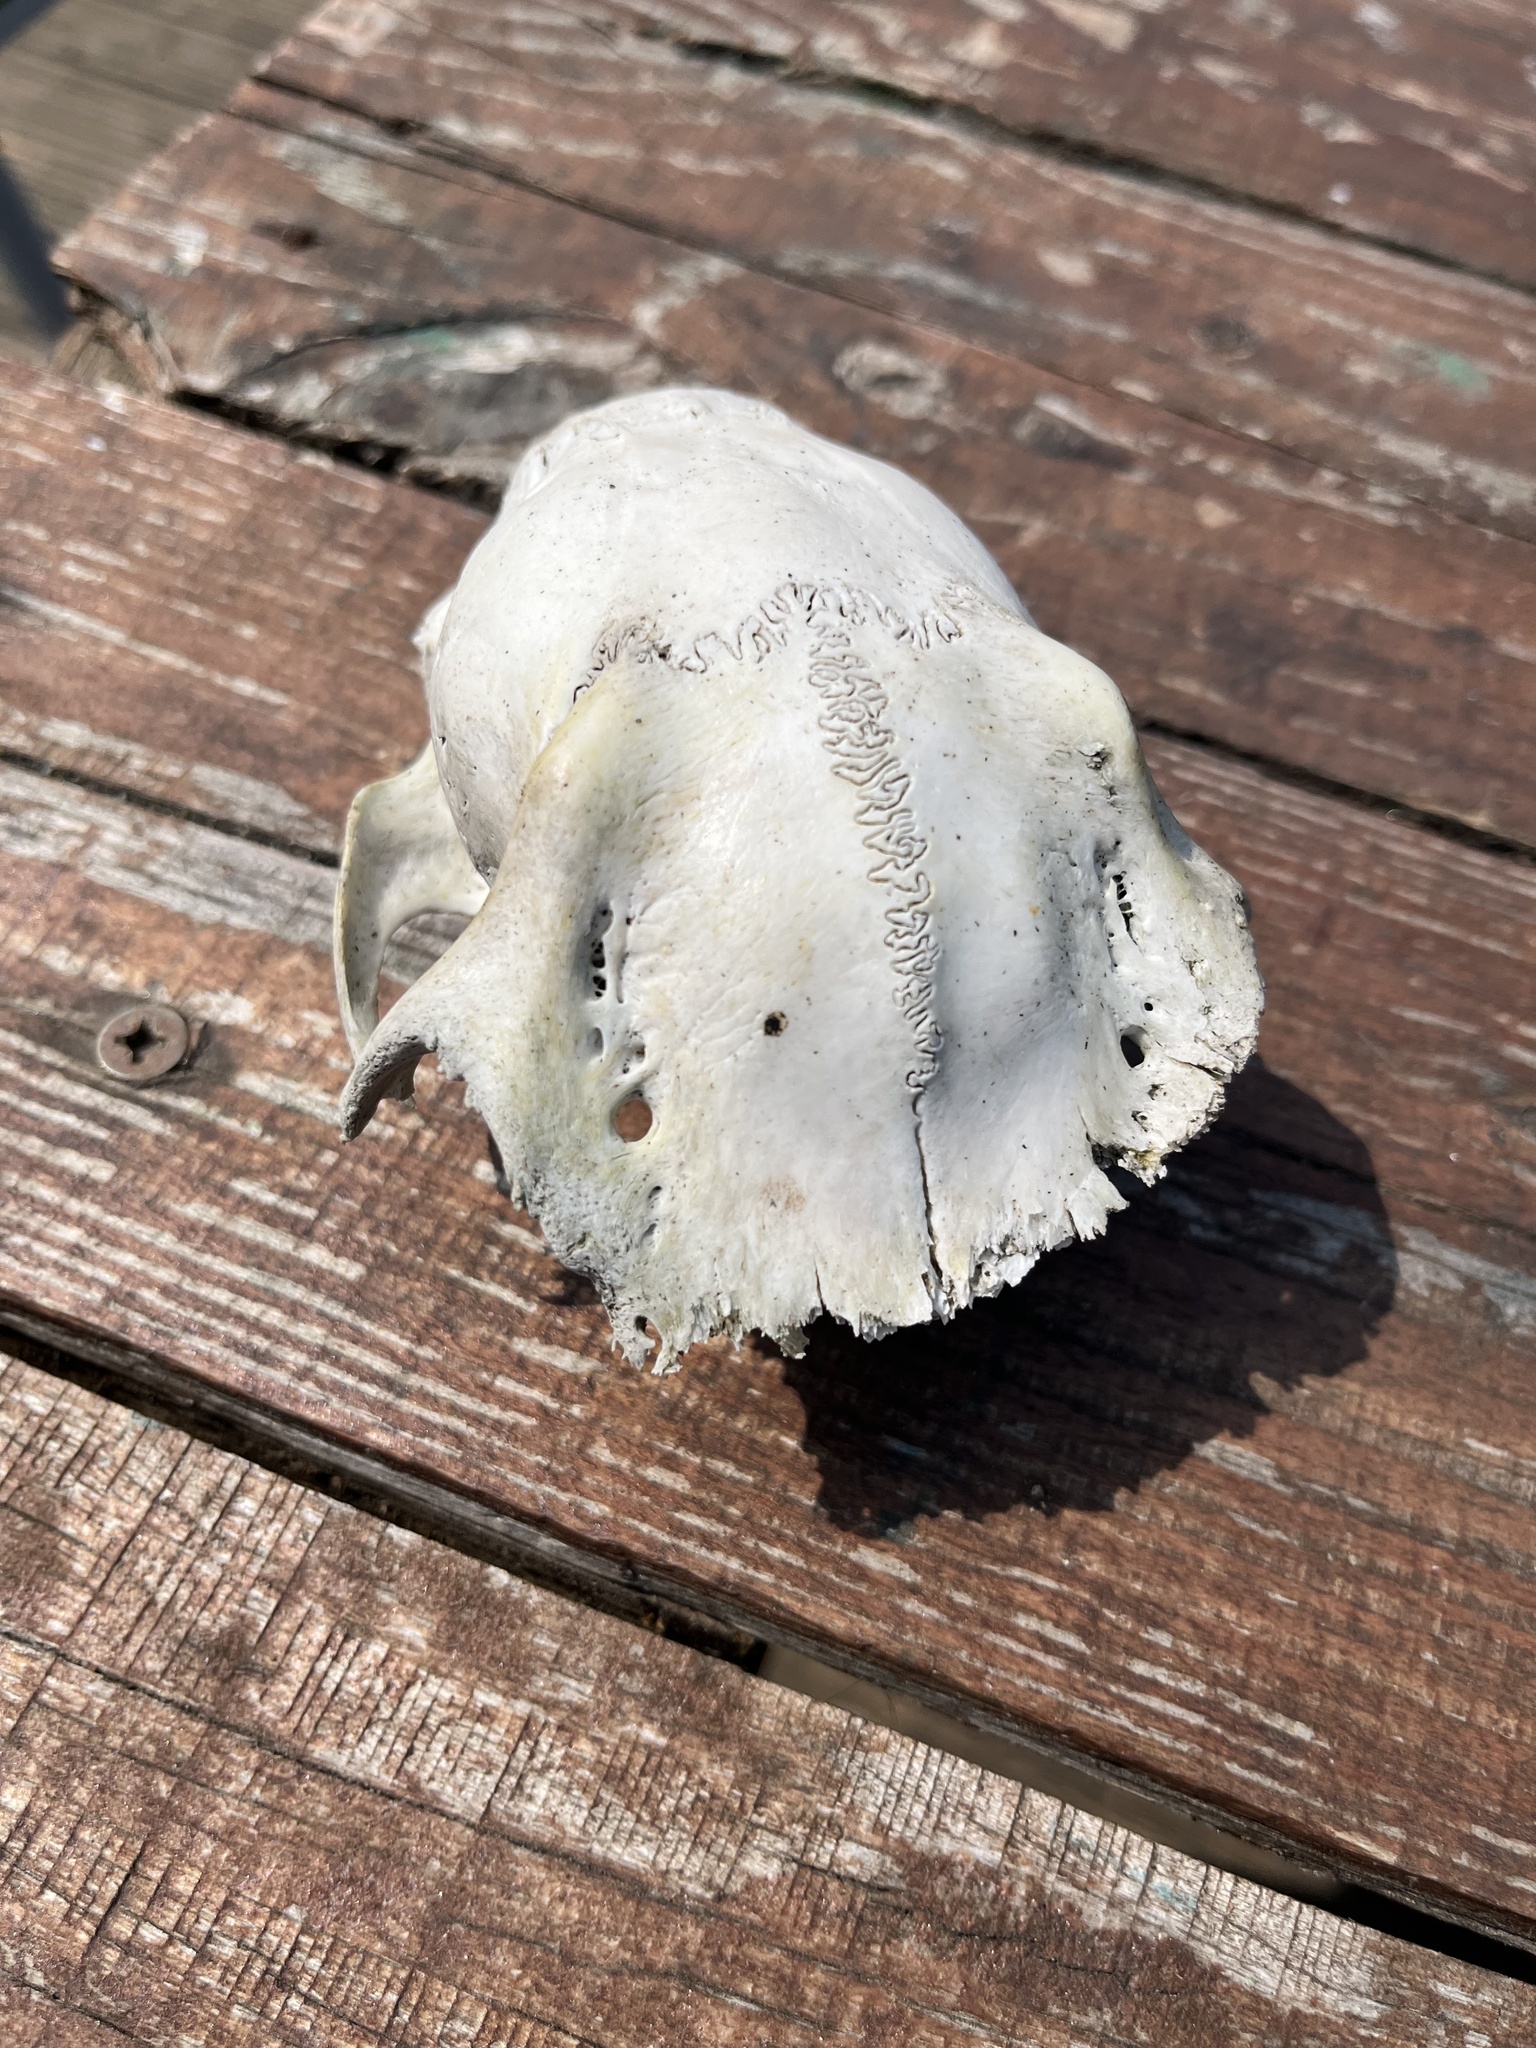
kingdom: Animalia
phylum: Chordata
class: Mammalia
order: Artiodactyla
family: Cervidae
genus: Capreolus
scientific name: Capreolus capreolus
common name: Western roe deer
